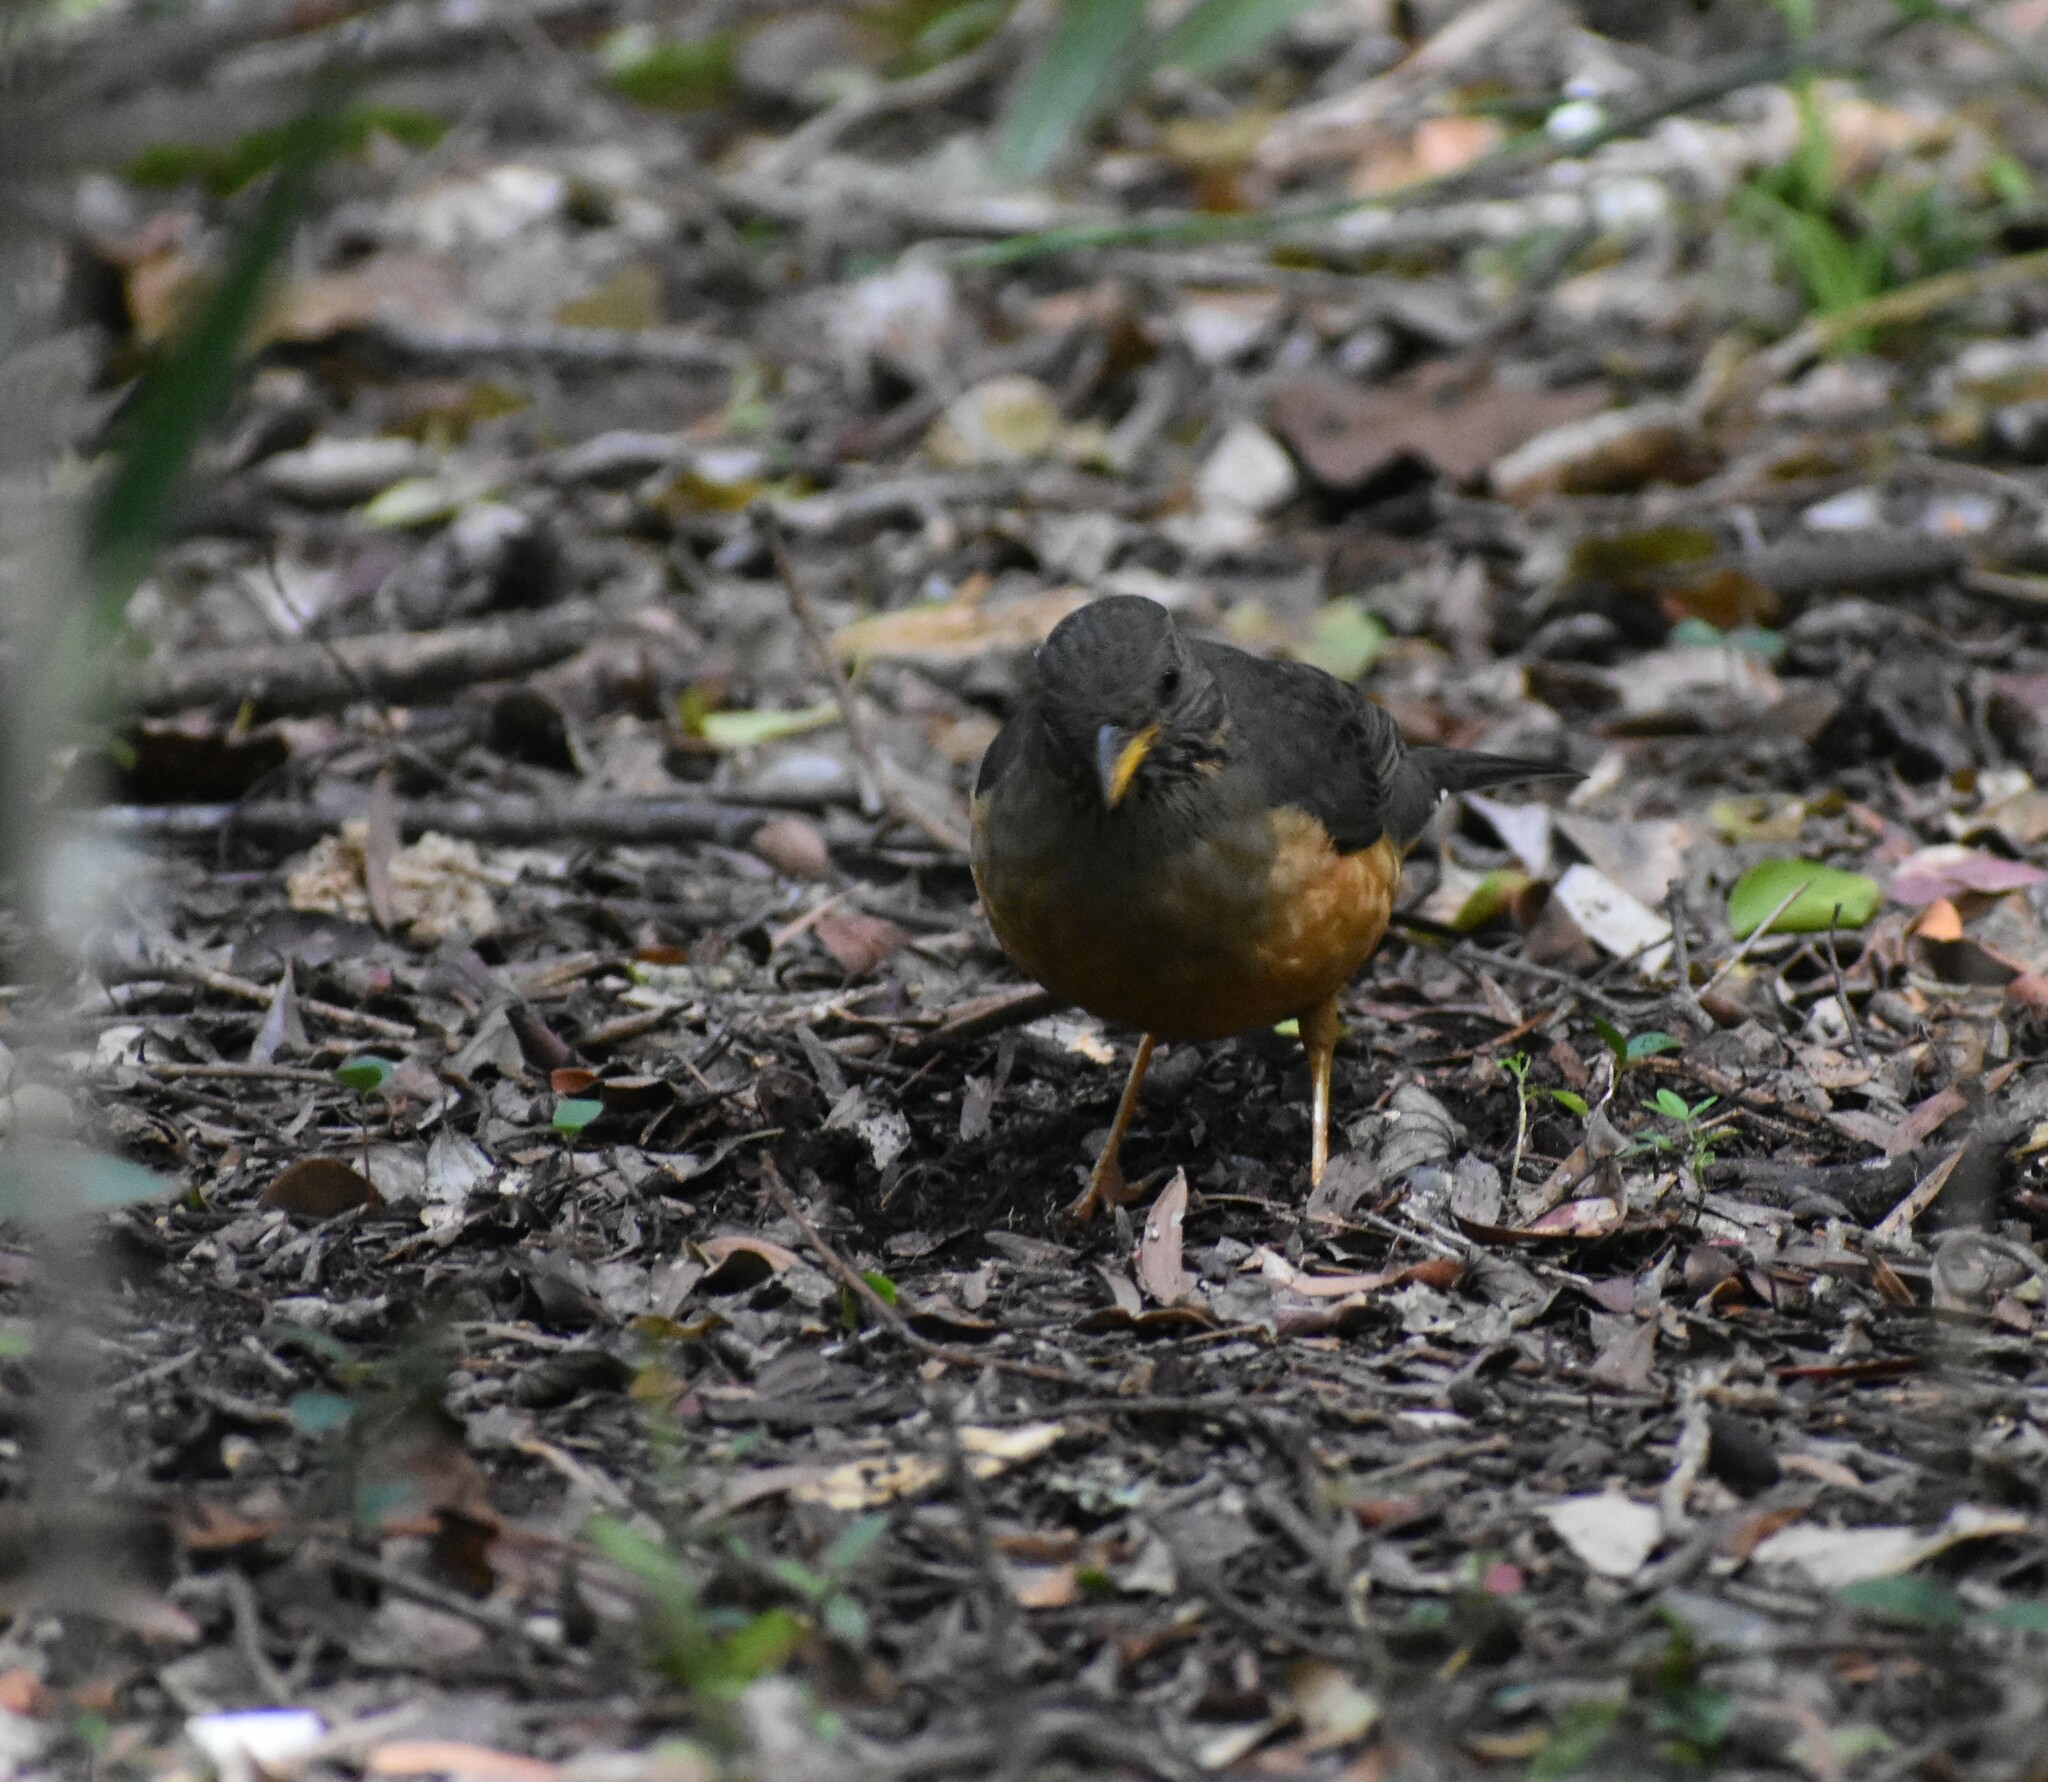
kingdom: Animalia
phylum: Chordata
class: Aves
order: Passeriformes
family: Turdidae
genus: Turdus
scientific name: Turdus olivaceus
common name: Olive thrush
